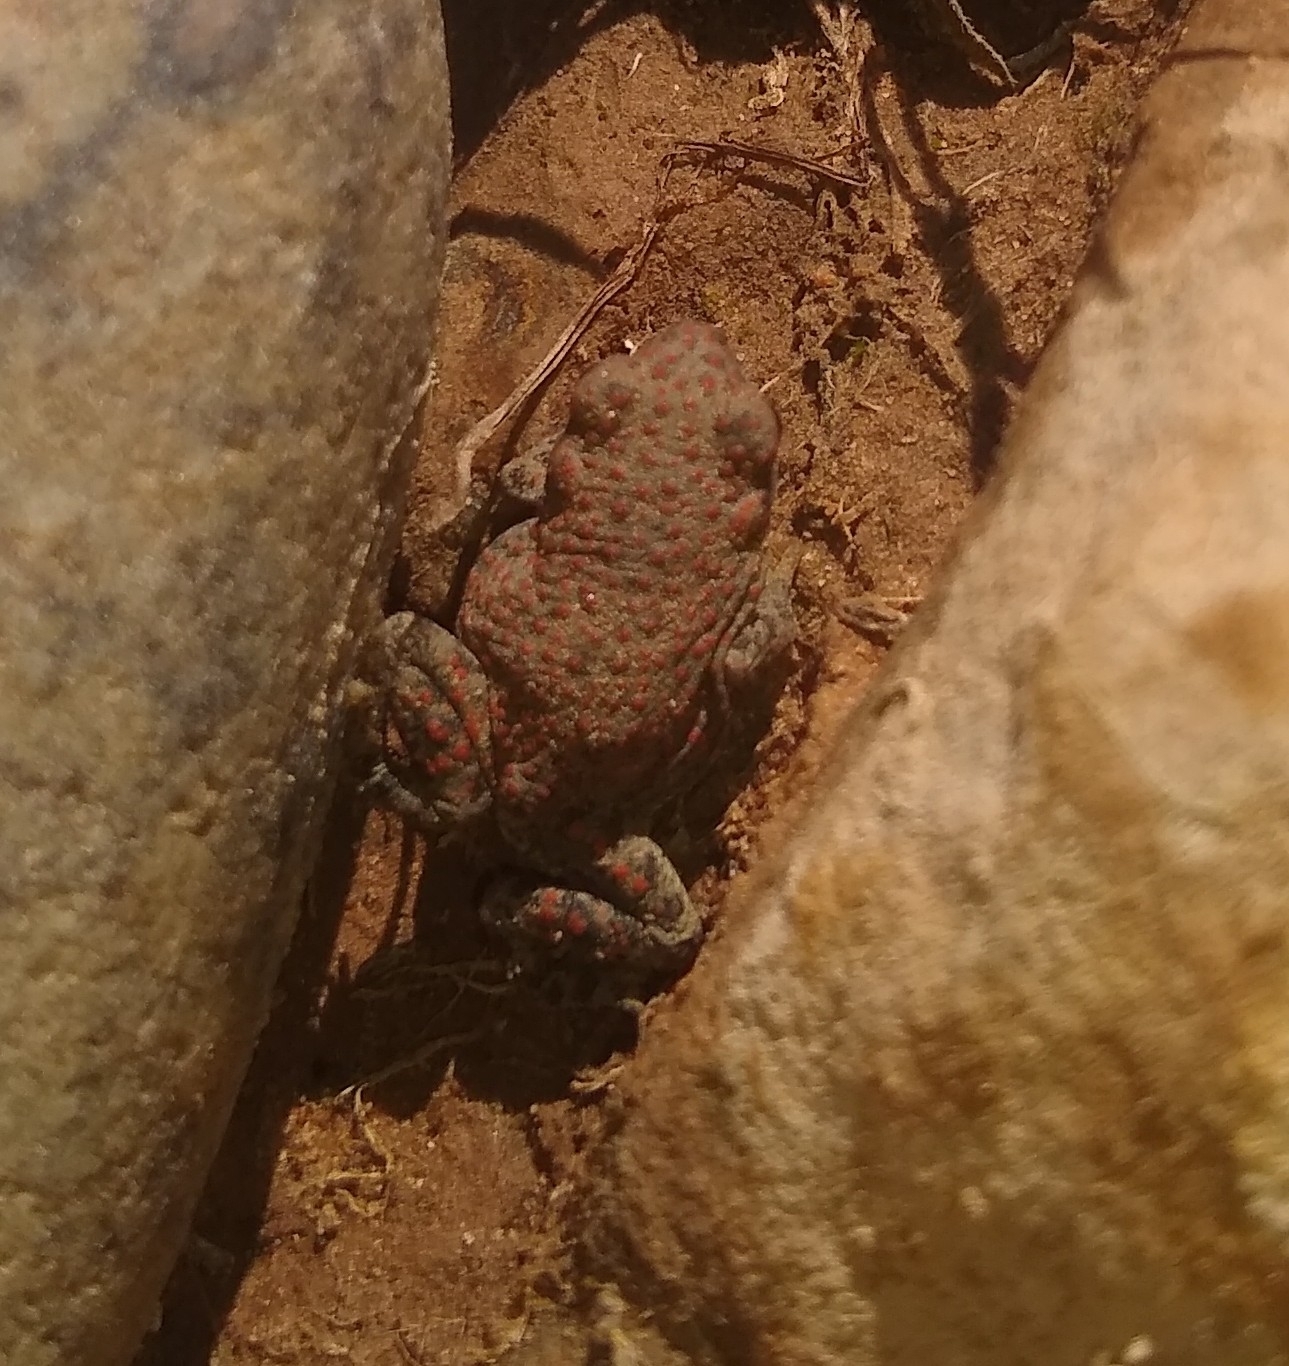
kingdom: Animalia
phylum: Chordata
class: Amphibia
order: Anura
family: Bufonidae
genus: Anaxyrus
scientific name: Anaxyrus punctatus
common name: Red-spotted toad
